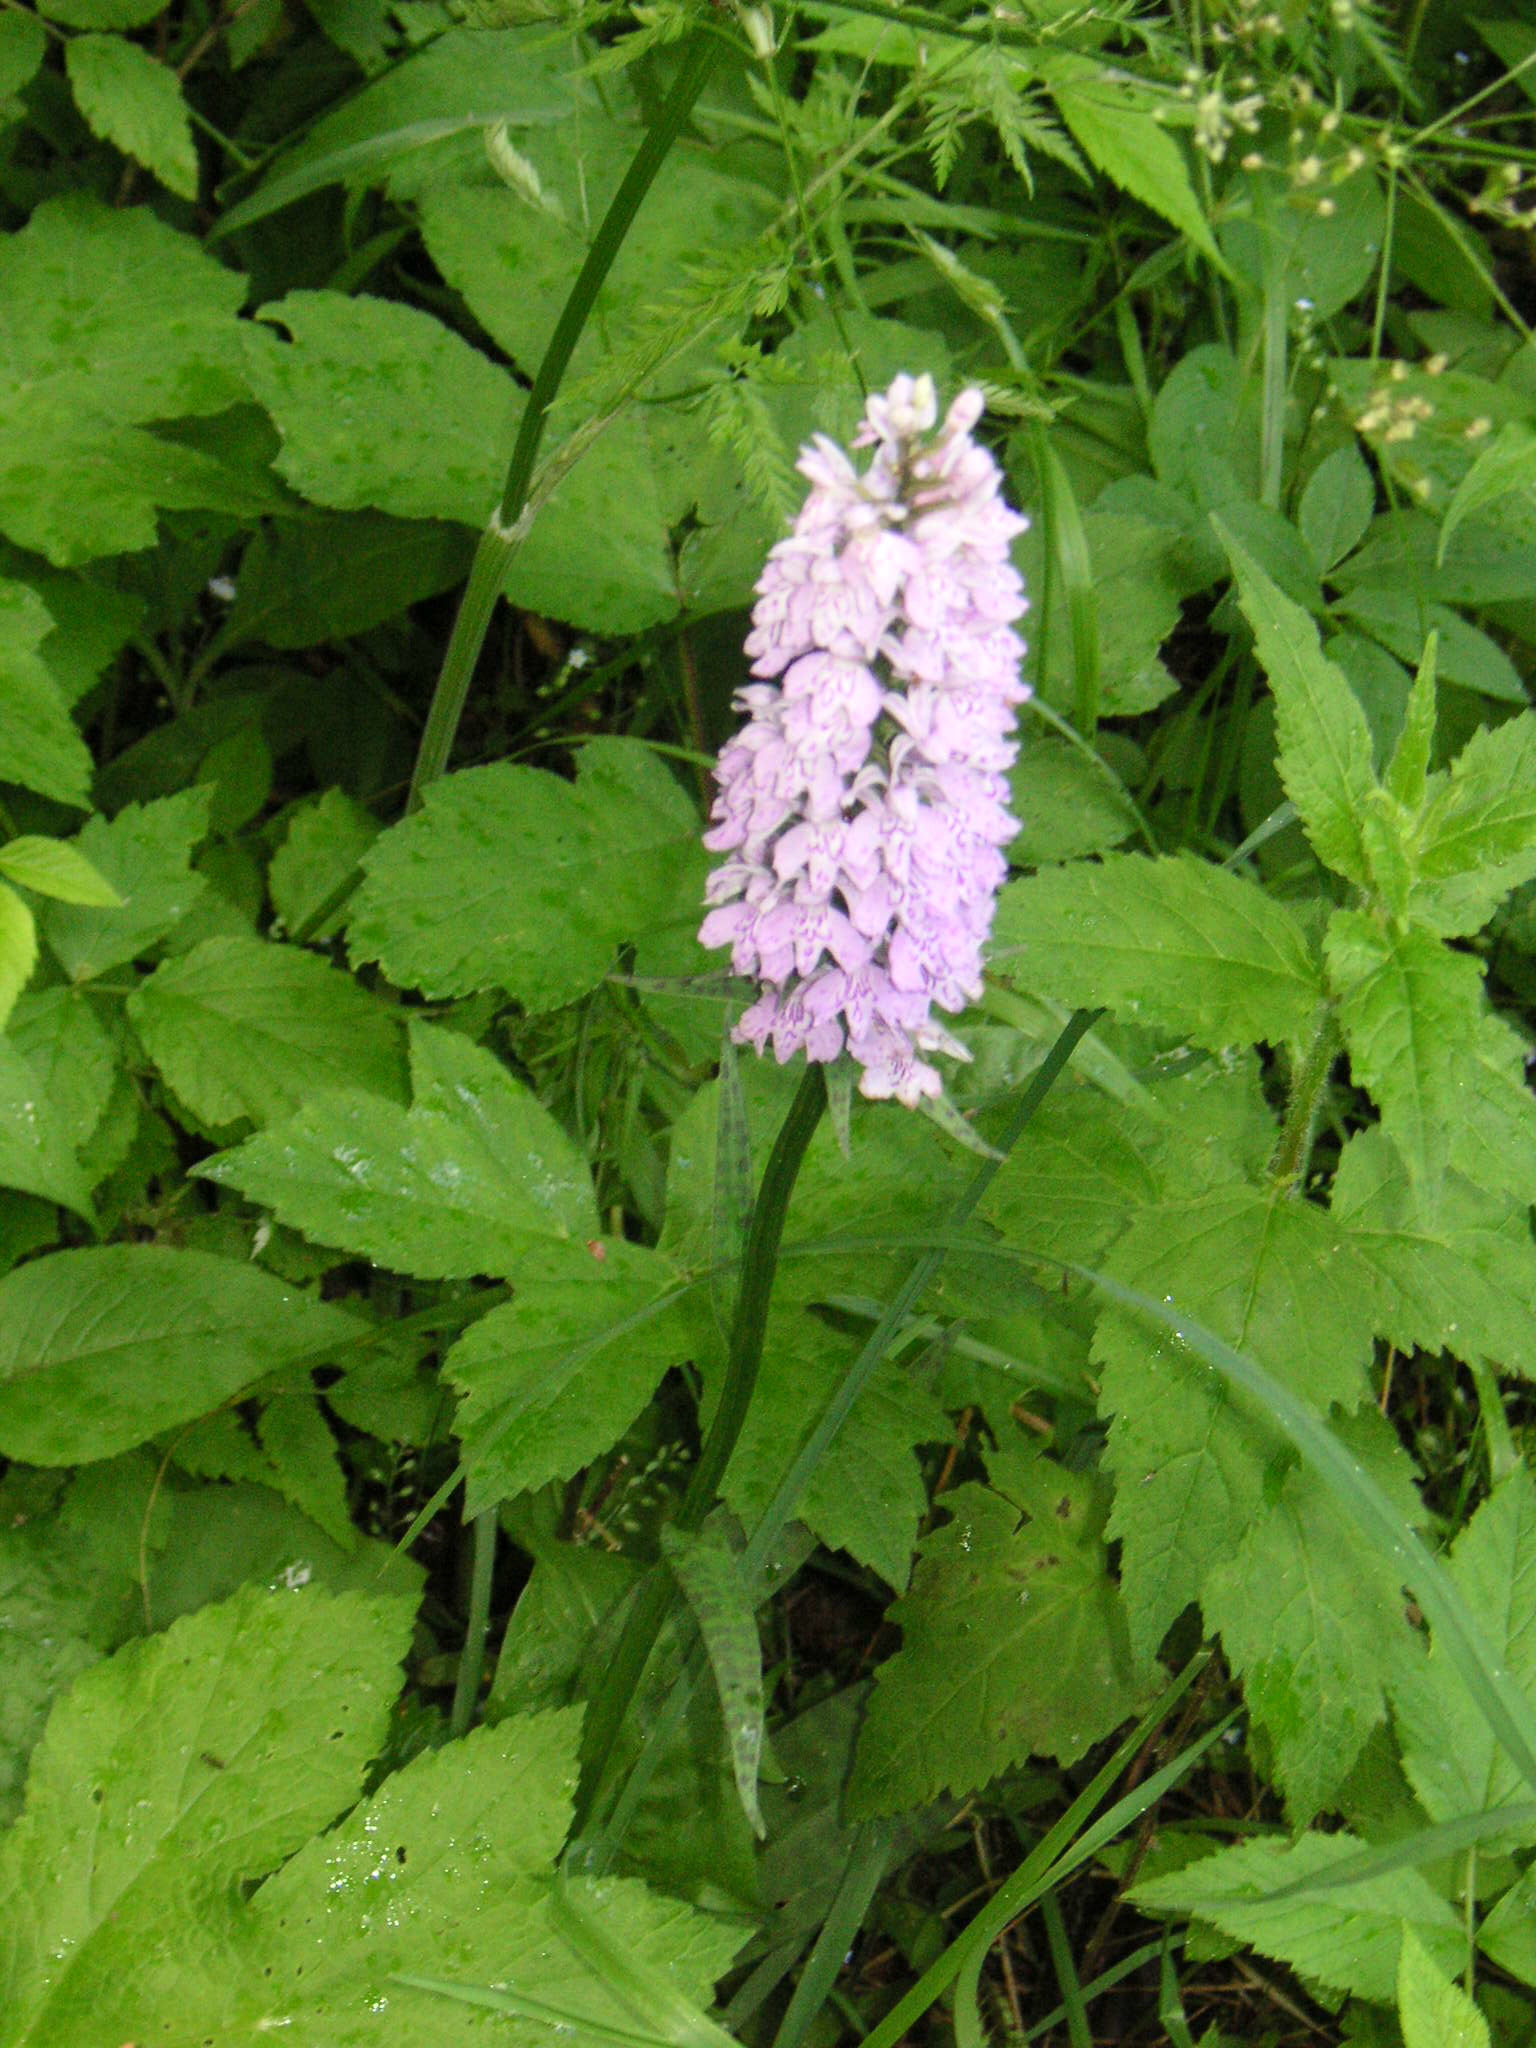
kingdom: Plantae
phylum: Tracheophyta
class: Liliopsida
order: Asparagales
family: Orchidaceae
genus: Dactylorhiza
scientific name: Dactylorhiza maculata
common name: Heath spotted-orchid
